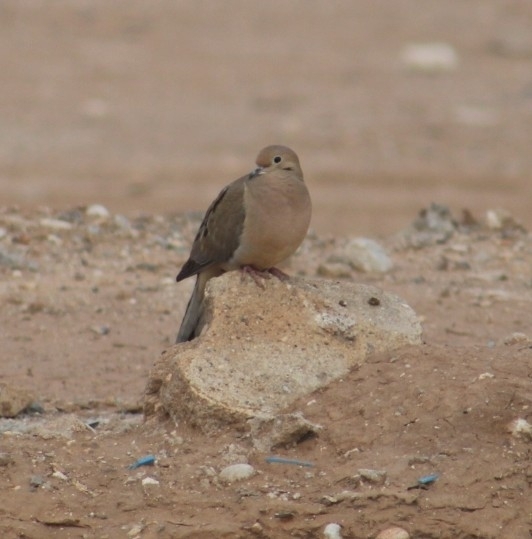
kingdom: Animalia
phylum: Chordata
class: Aves
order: Columbiformes
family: Columbidae
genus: Zenaida
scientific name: Zenaida macroura
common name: Mourning dove
